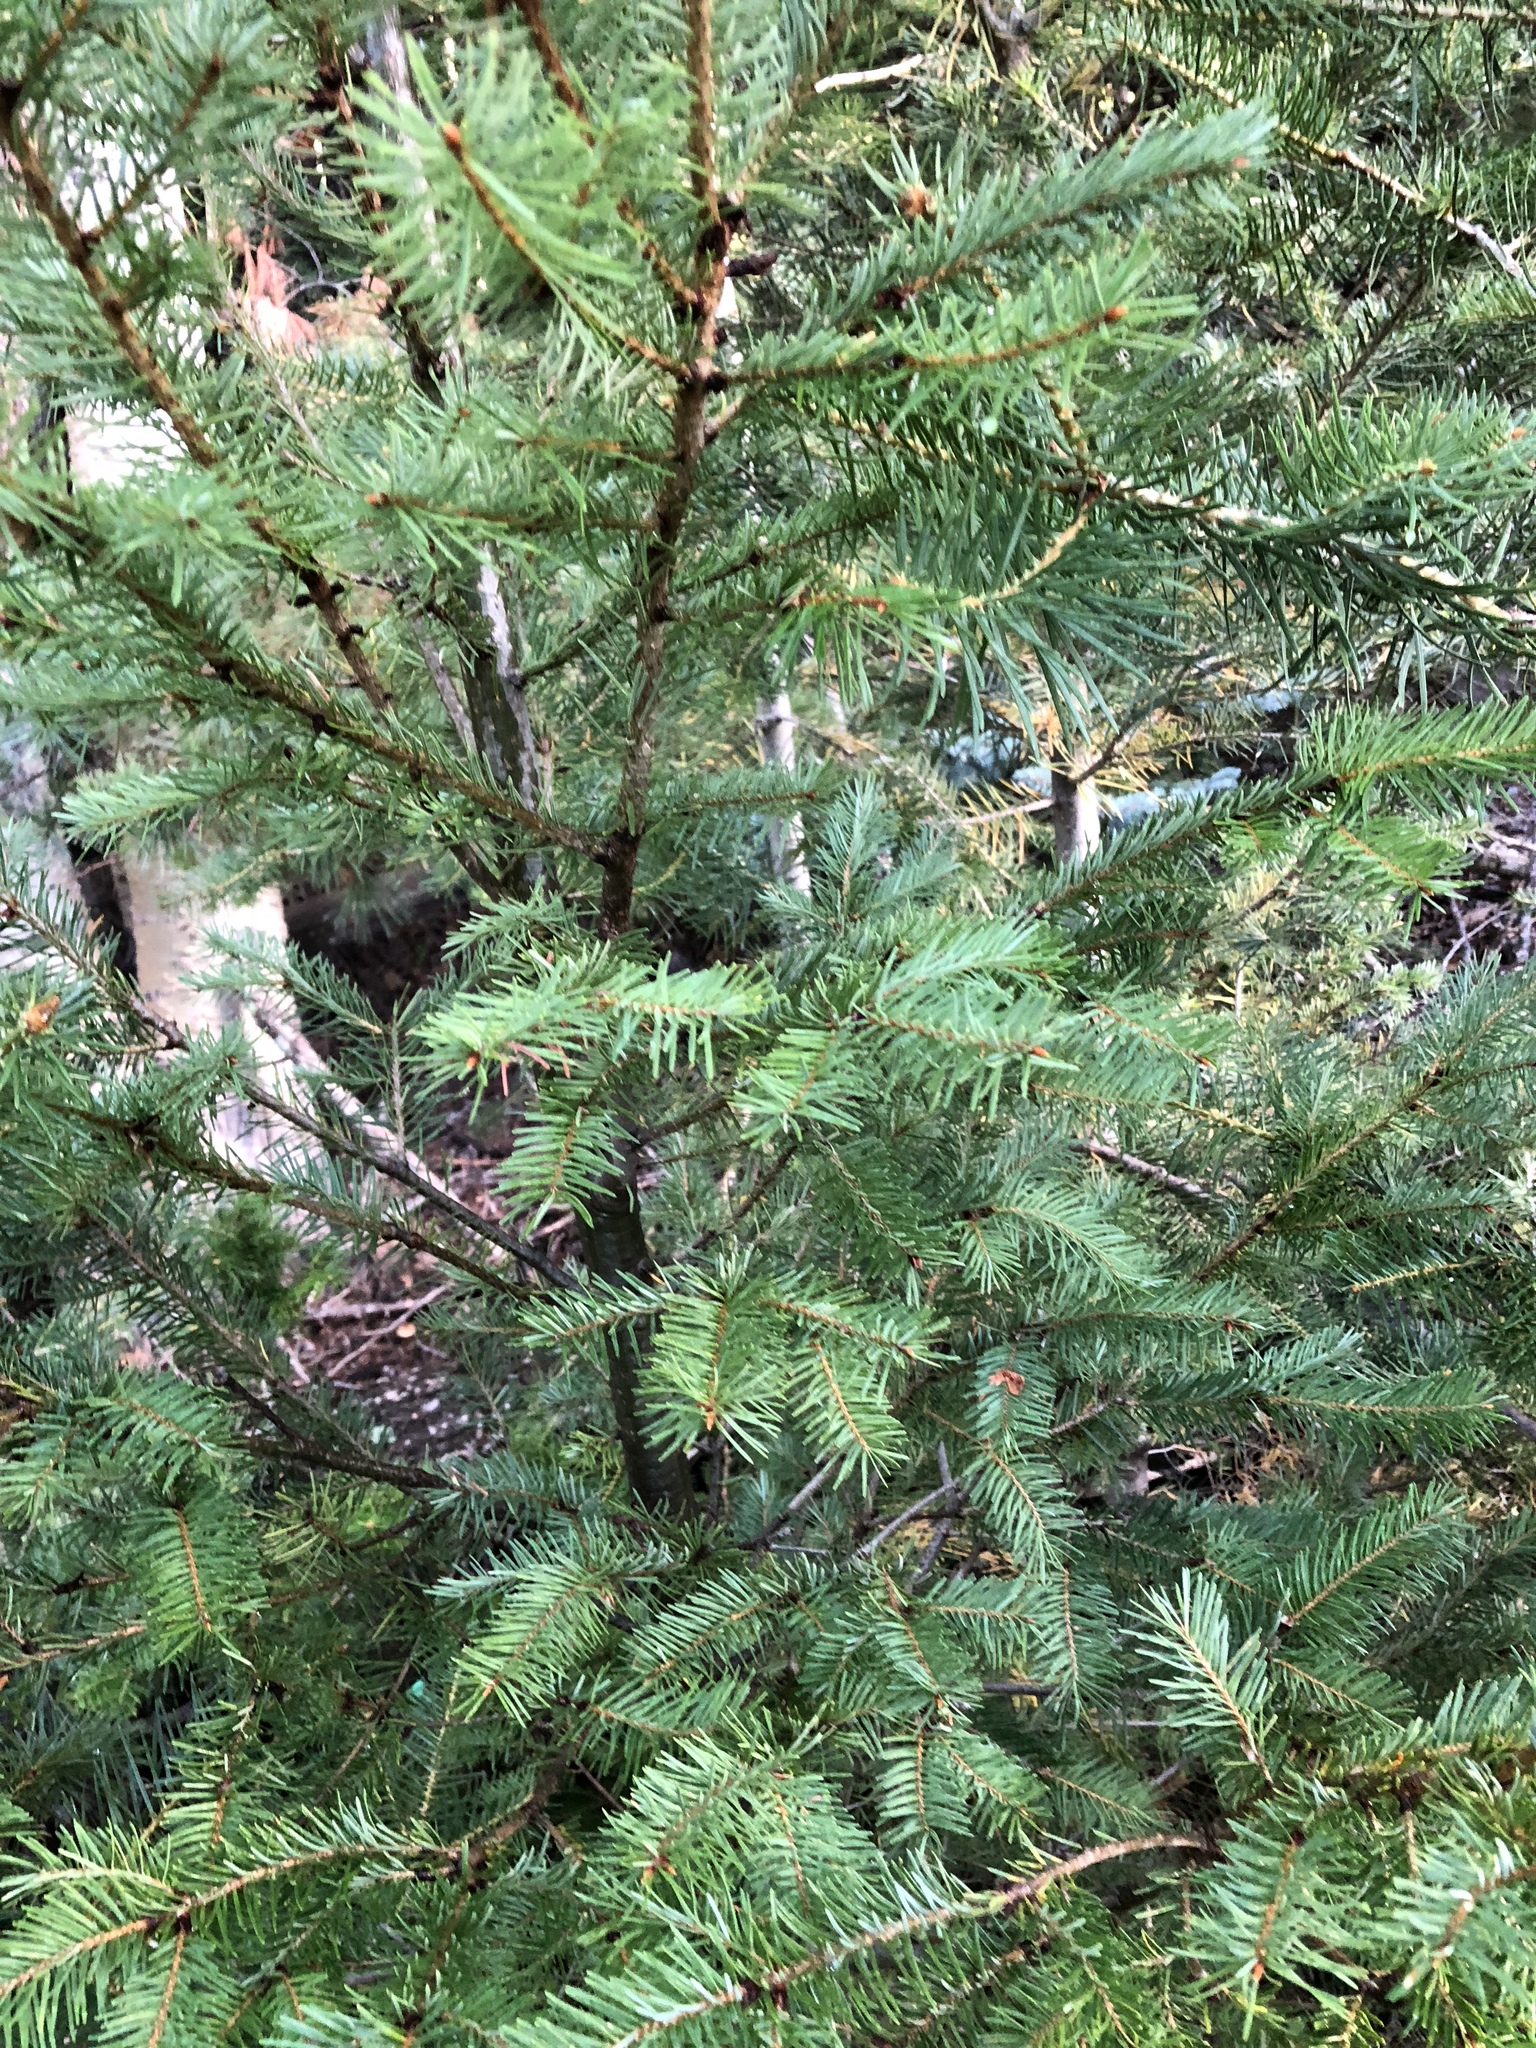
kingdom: Plantae
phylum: Tracheophyta
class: Pinopsida
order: Pinales
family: Pinaceae
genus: Pseudotsuga
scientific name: Pseudotsuga menziesii
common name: Douglas fir
